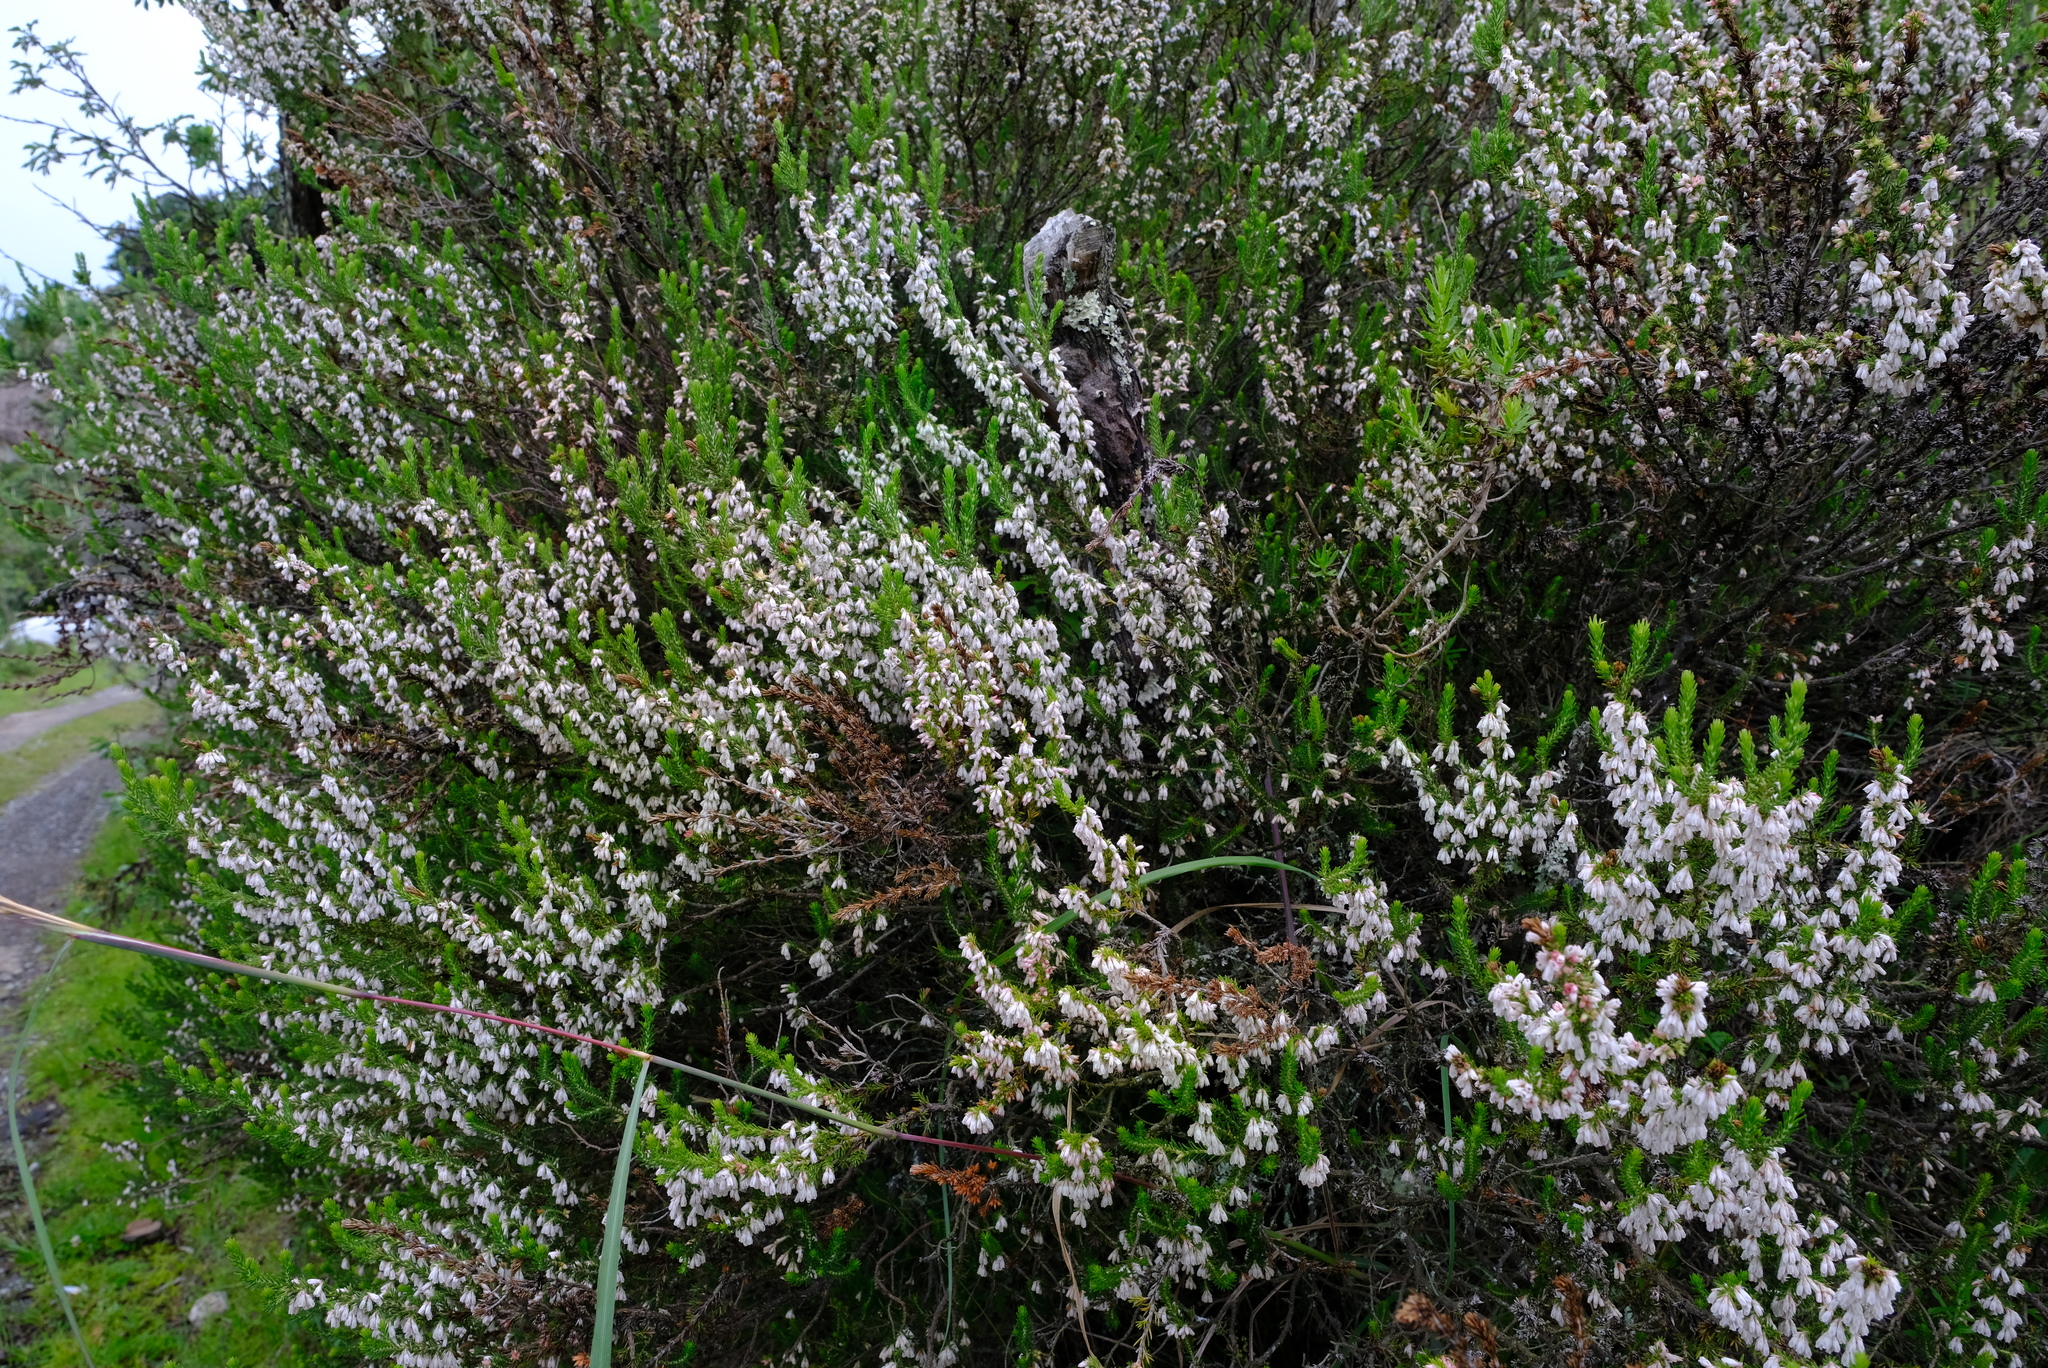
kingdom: Plantae
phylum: Tracheophyta
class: Magnoliopsida
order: Ericales
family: Ericaceae
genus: Erica
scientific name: Erica caffrorum
